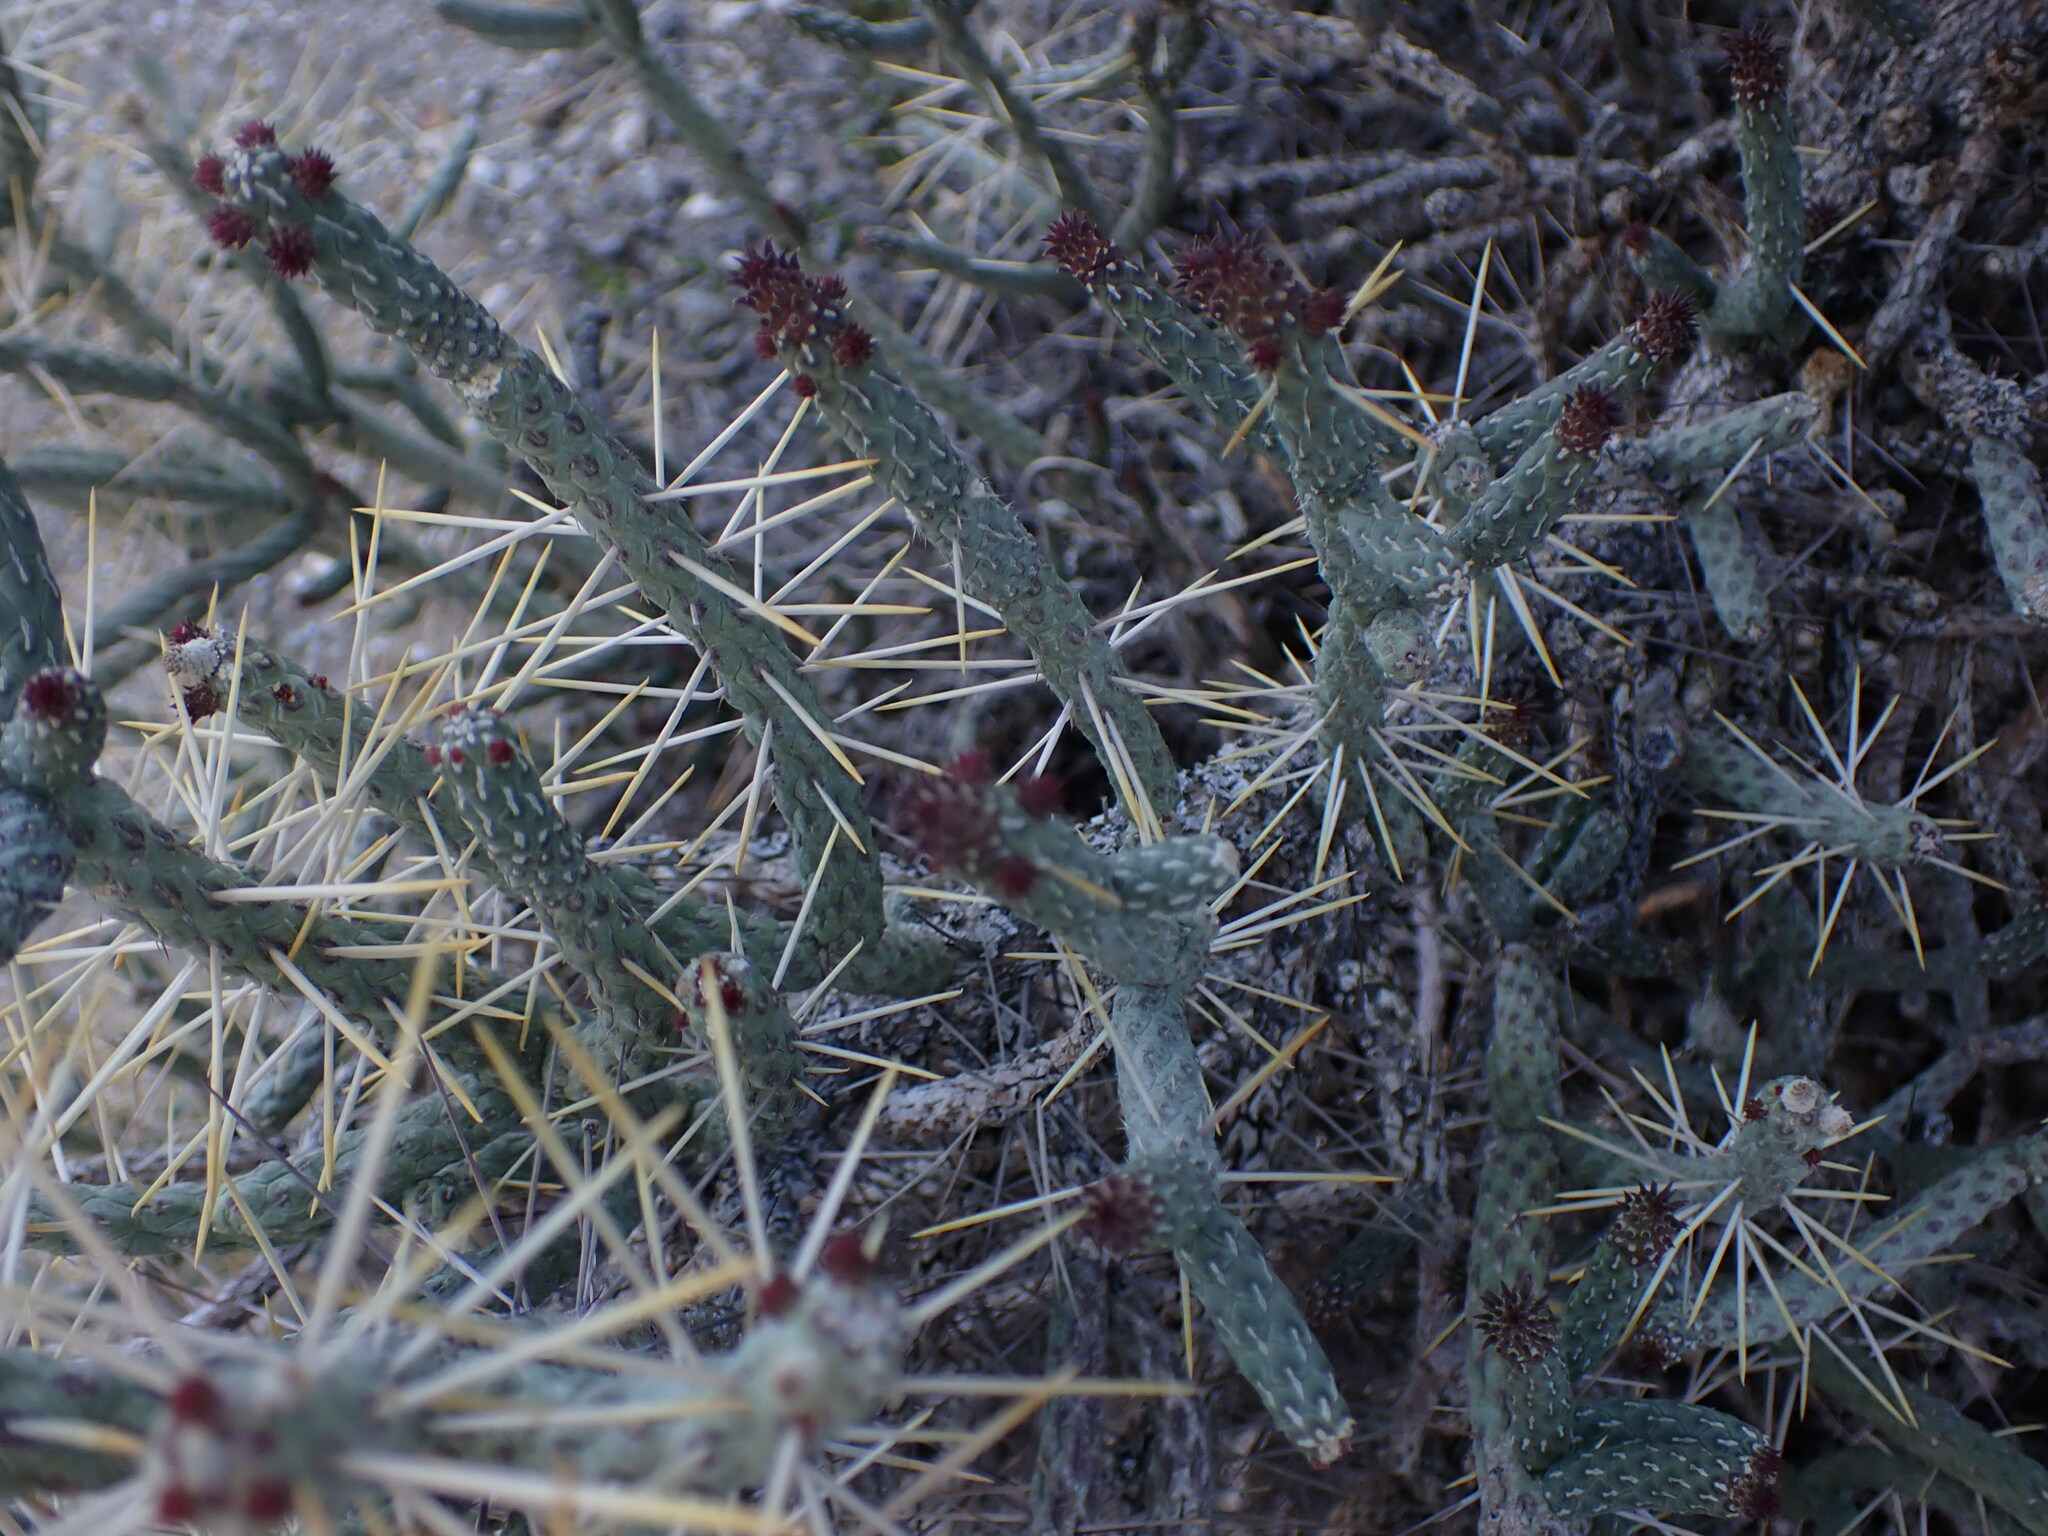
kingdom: Plantae
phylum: Tracheophyta
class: Magnoliopsida
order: Caryophyllales
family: Cactaceae
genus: Cylindropuntia
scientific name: Cylindropuntia ramosissima
